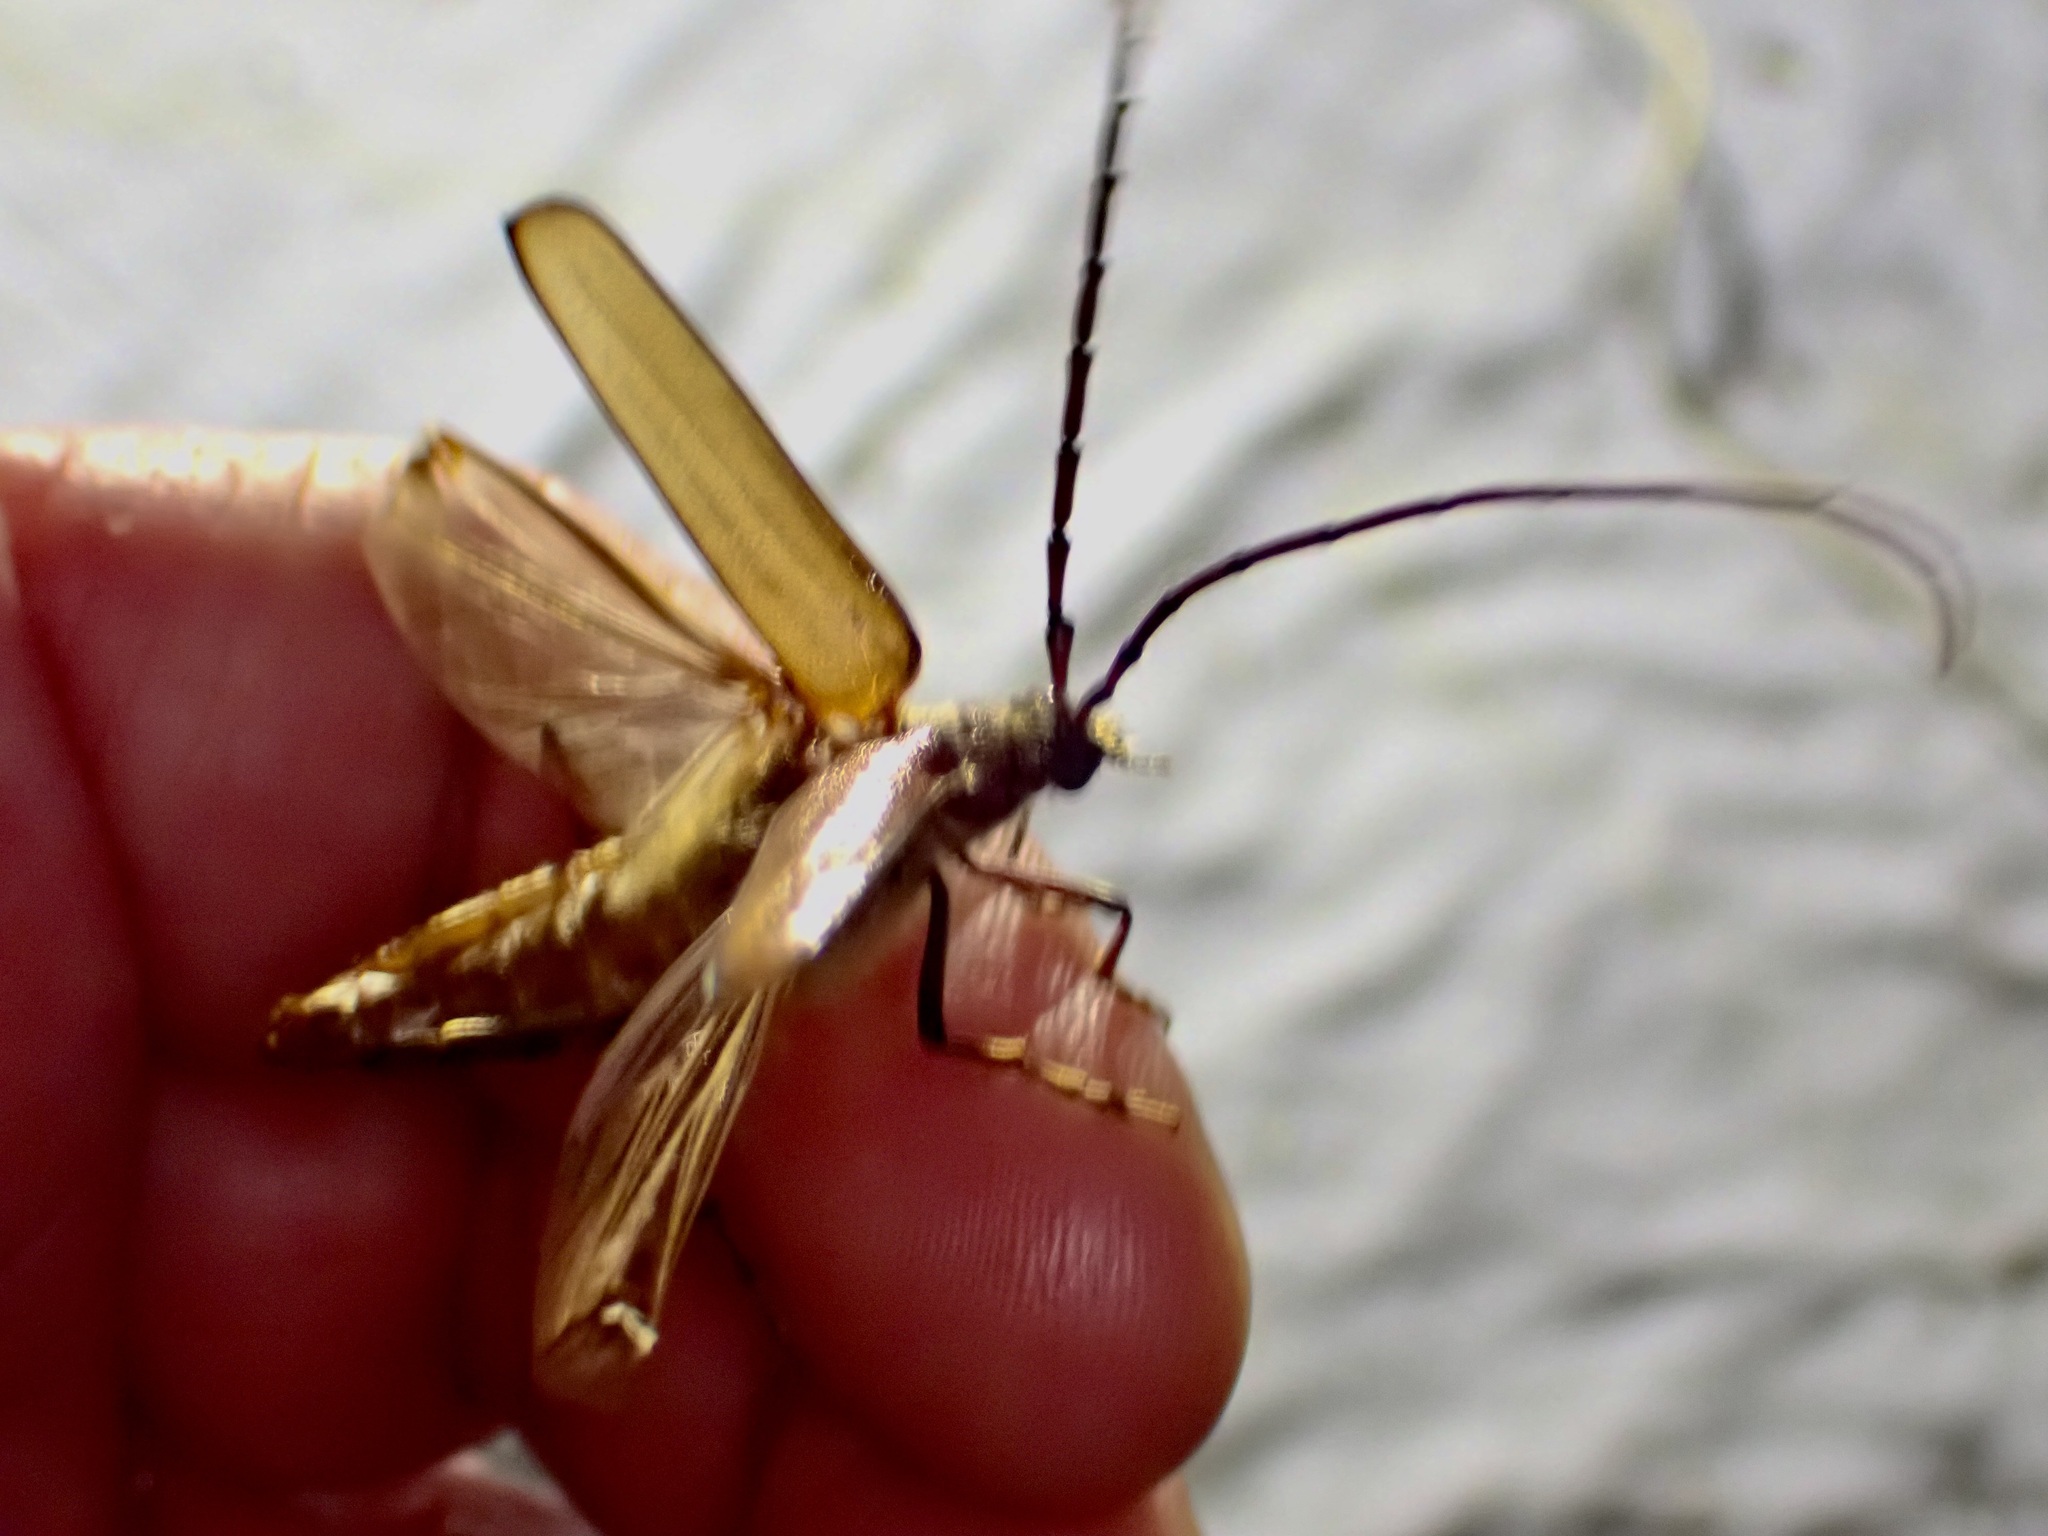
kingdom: Animalia
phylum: Arthropoda
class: Insecta
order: Coleoptera
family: Cerambycidae
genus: Ochrocydus
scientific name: Ochrocydus huttoni
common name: Kanuka longhorn
